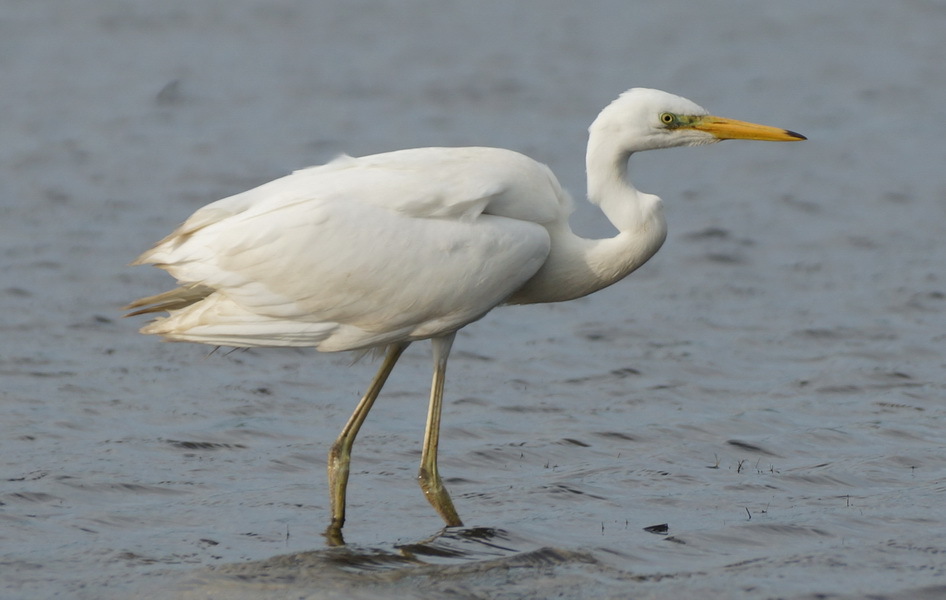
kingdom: Animalia
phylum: Chordata
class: Aves
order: Pelecaniformes
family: Ardeidae
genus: Ardea
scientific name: Ardea alba
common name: Great egret
